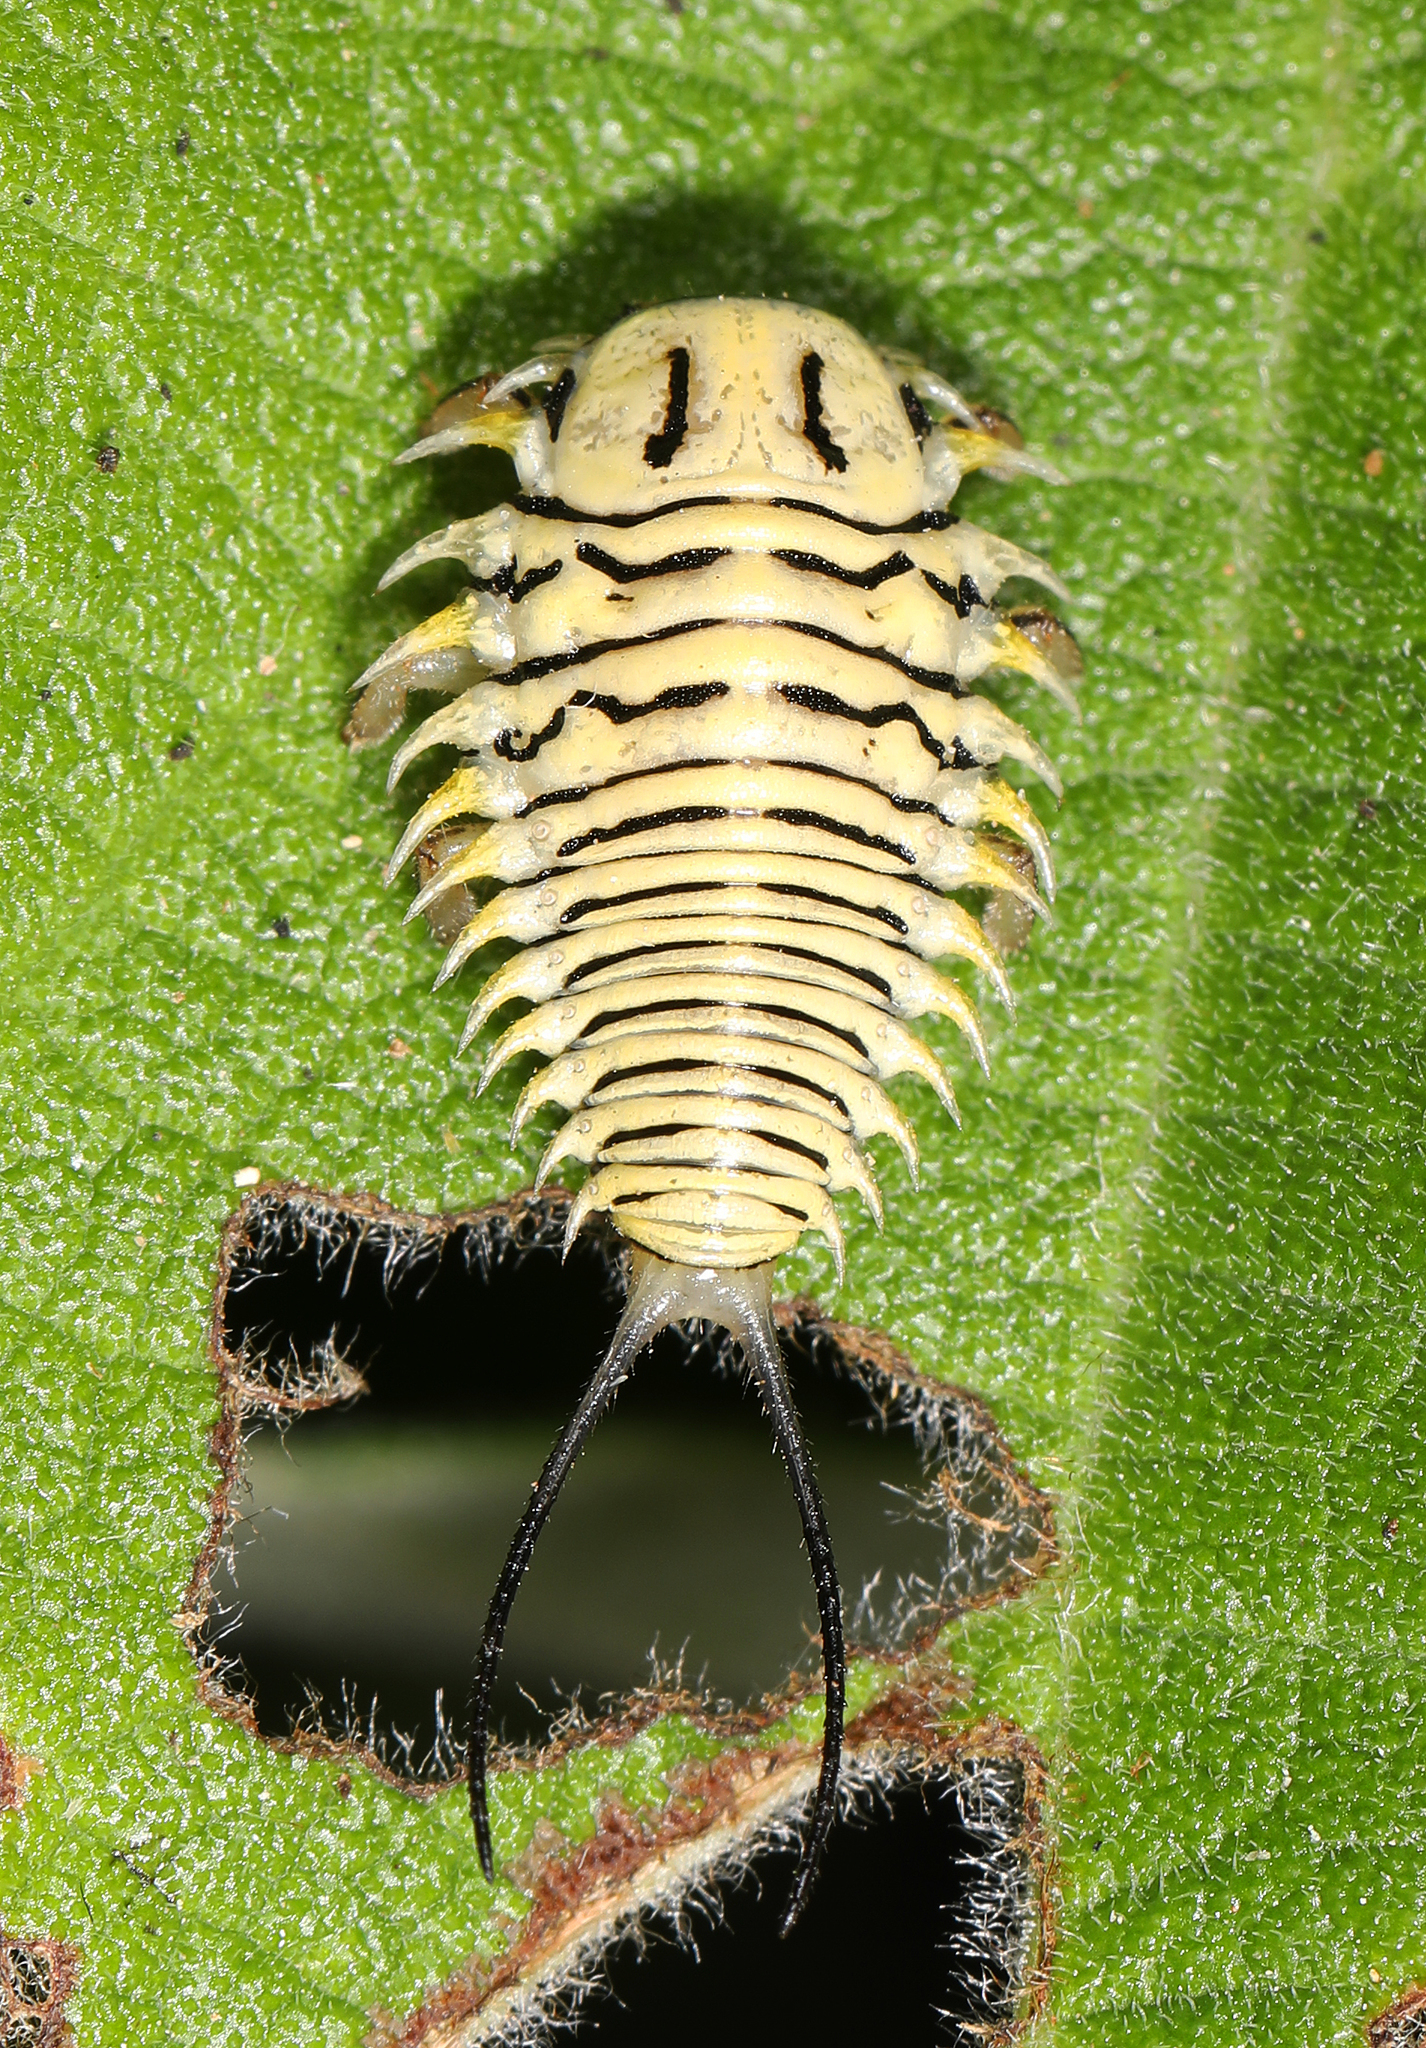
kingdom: Animalia
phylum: Arthropoda
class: Insecta
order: Coleoptera
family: Chrysomelidae
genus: Physonota
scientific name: Physonota alutacea
